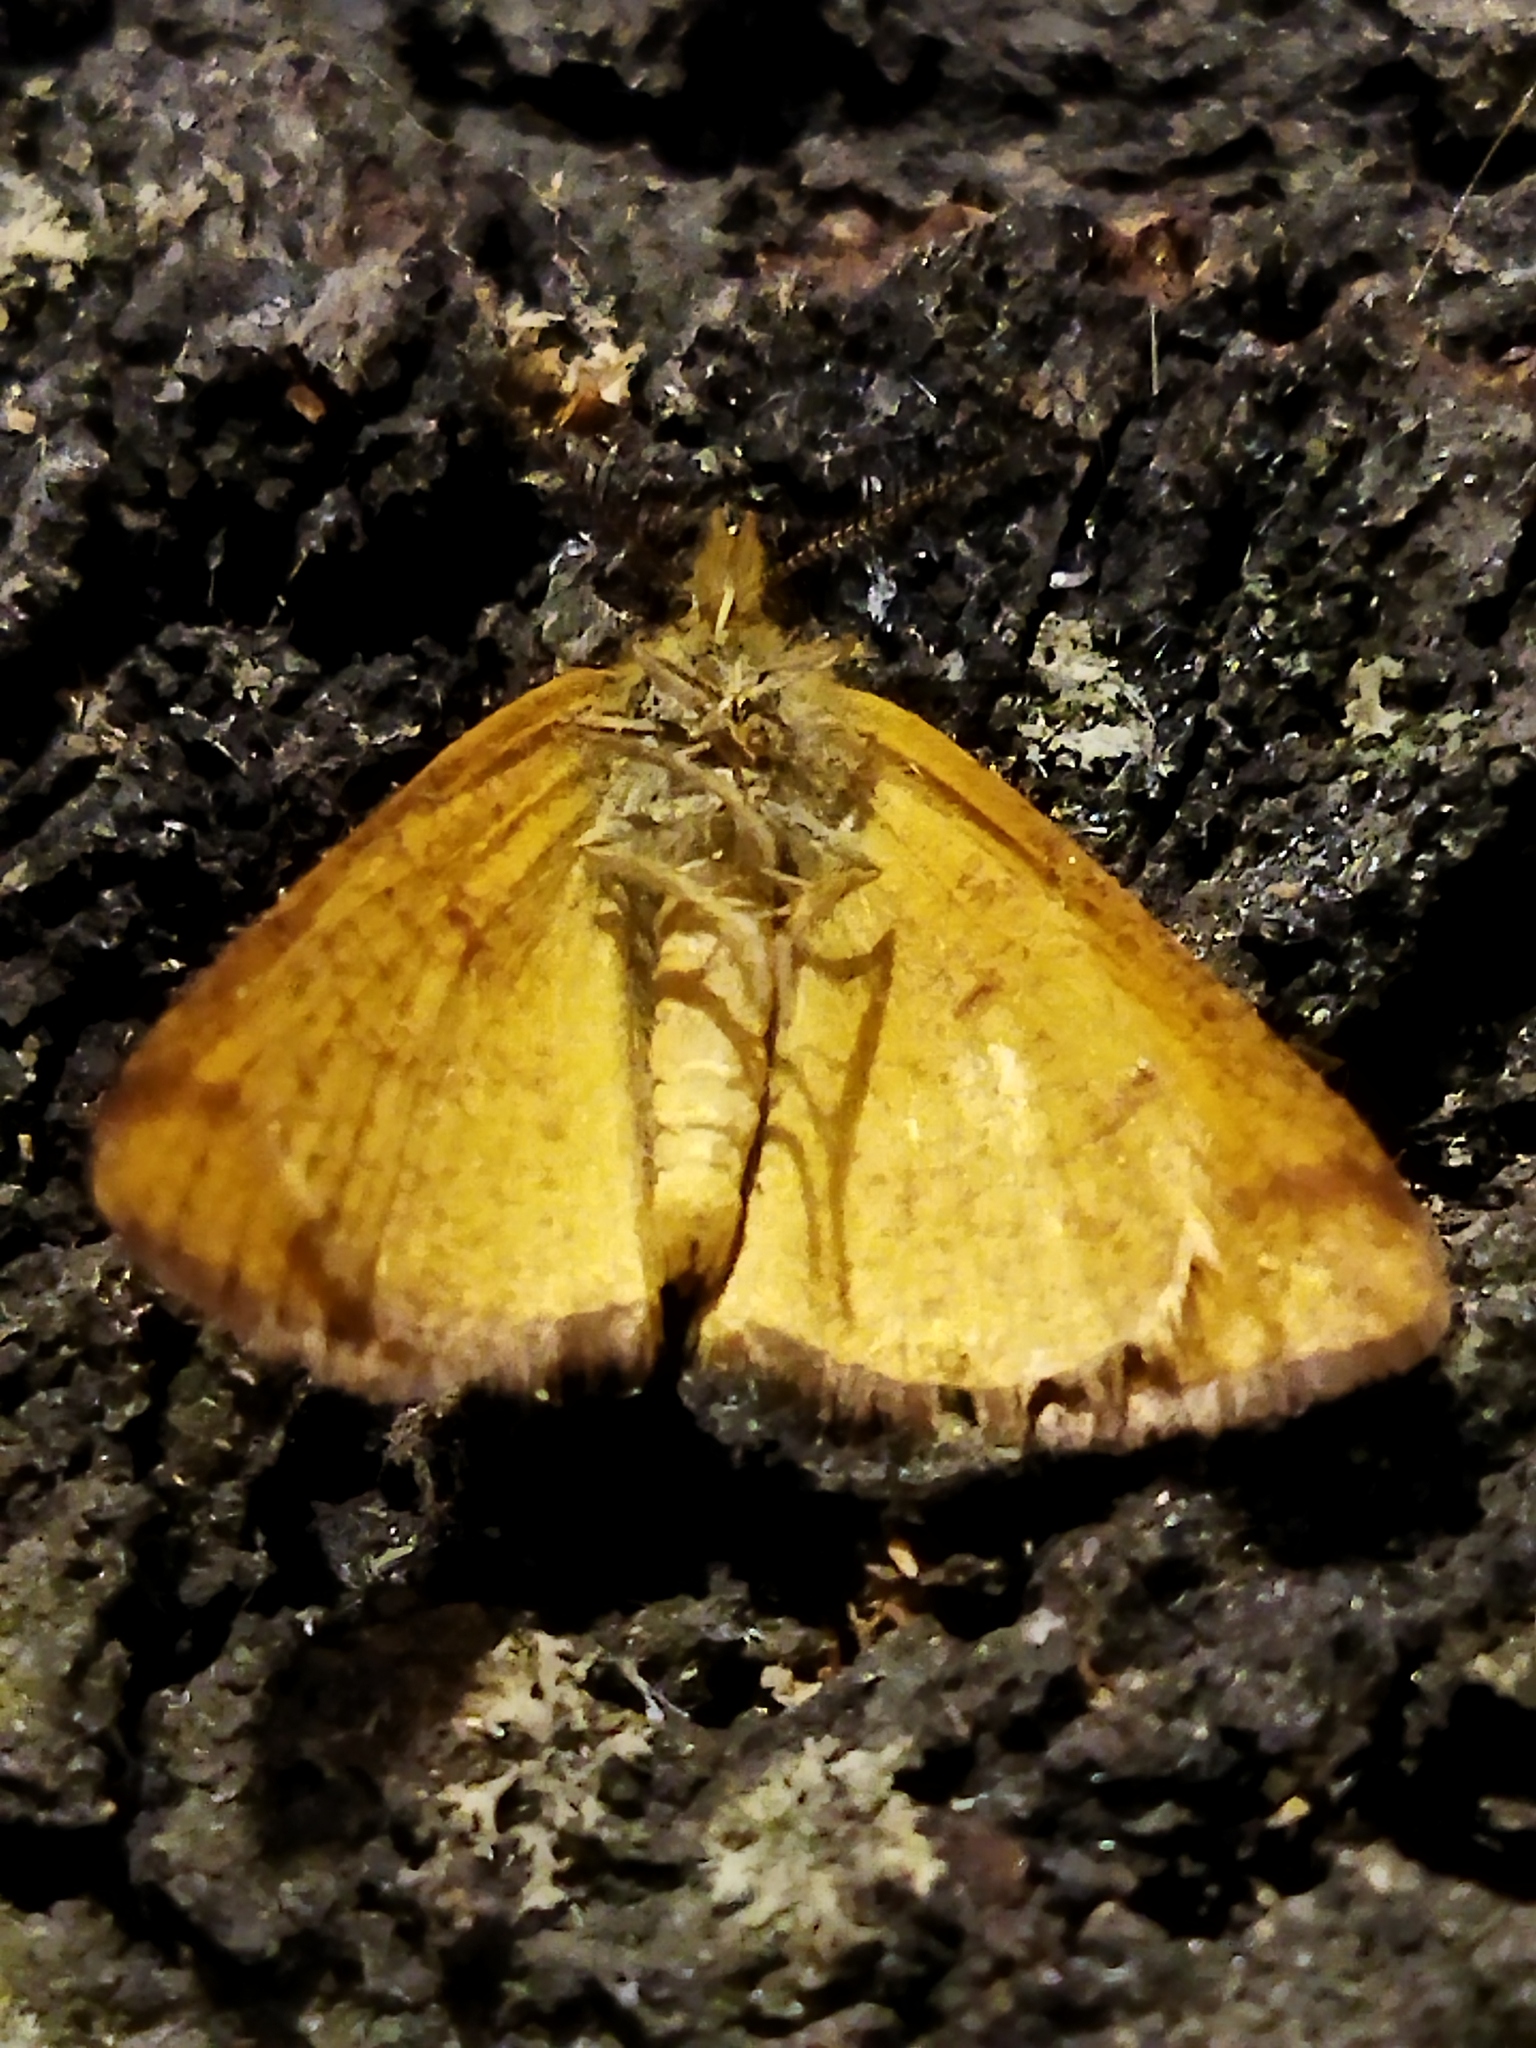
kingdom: Animalia
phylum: Arthropoda
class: Insecta
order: Lepidoptera
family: Geometridae
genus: Lythria
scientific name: Lythria purpuraria
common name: Purple-barred yellow
